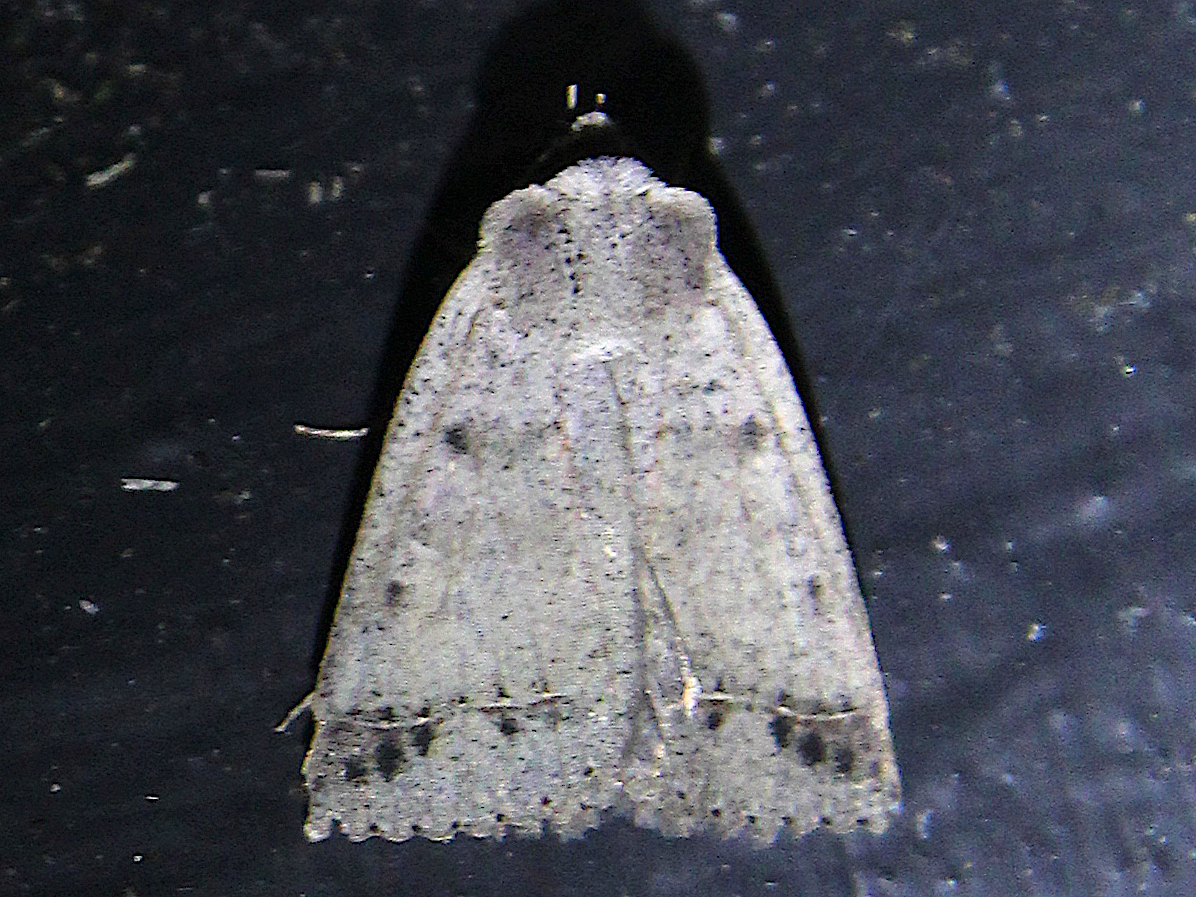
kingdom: Animalia
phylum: Arthropoda
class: Insecta
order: Lepidoptera
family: Erebidae
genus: Pantydia
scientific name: Pantydia sparsa
